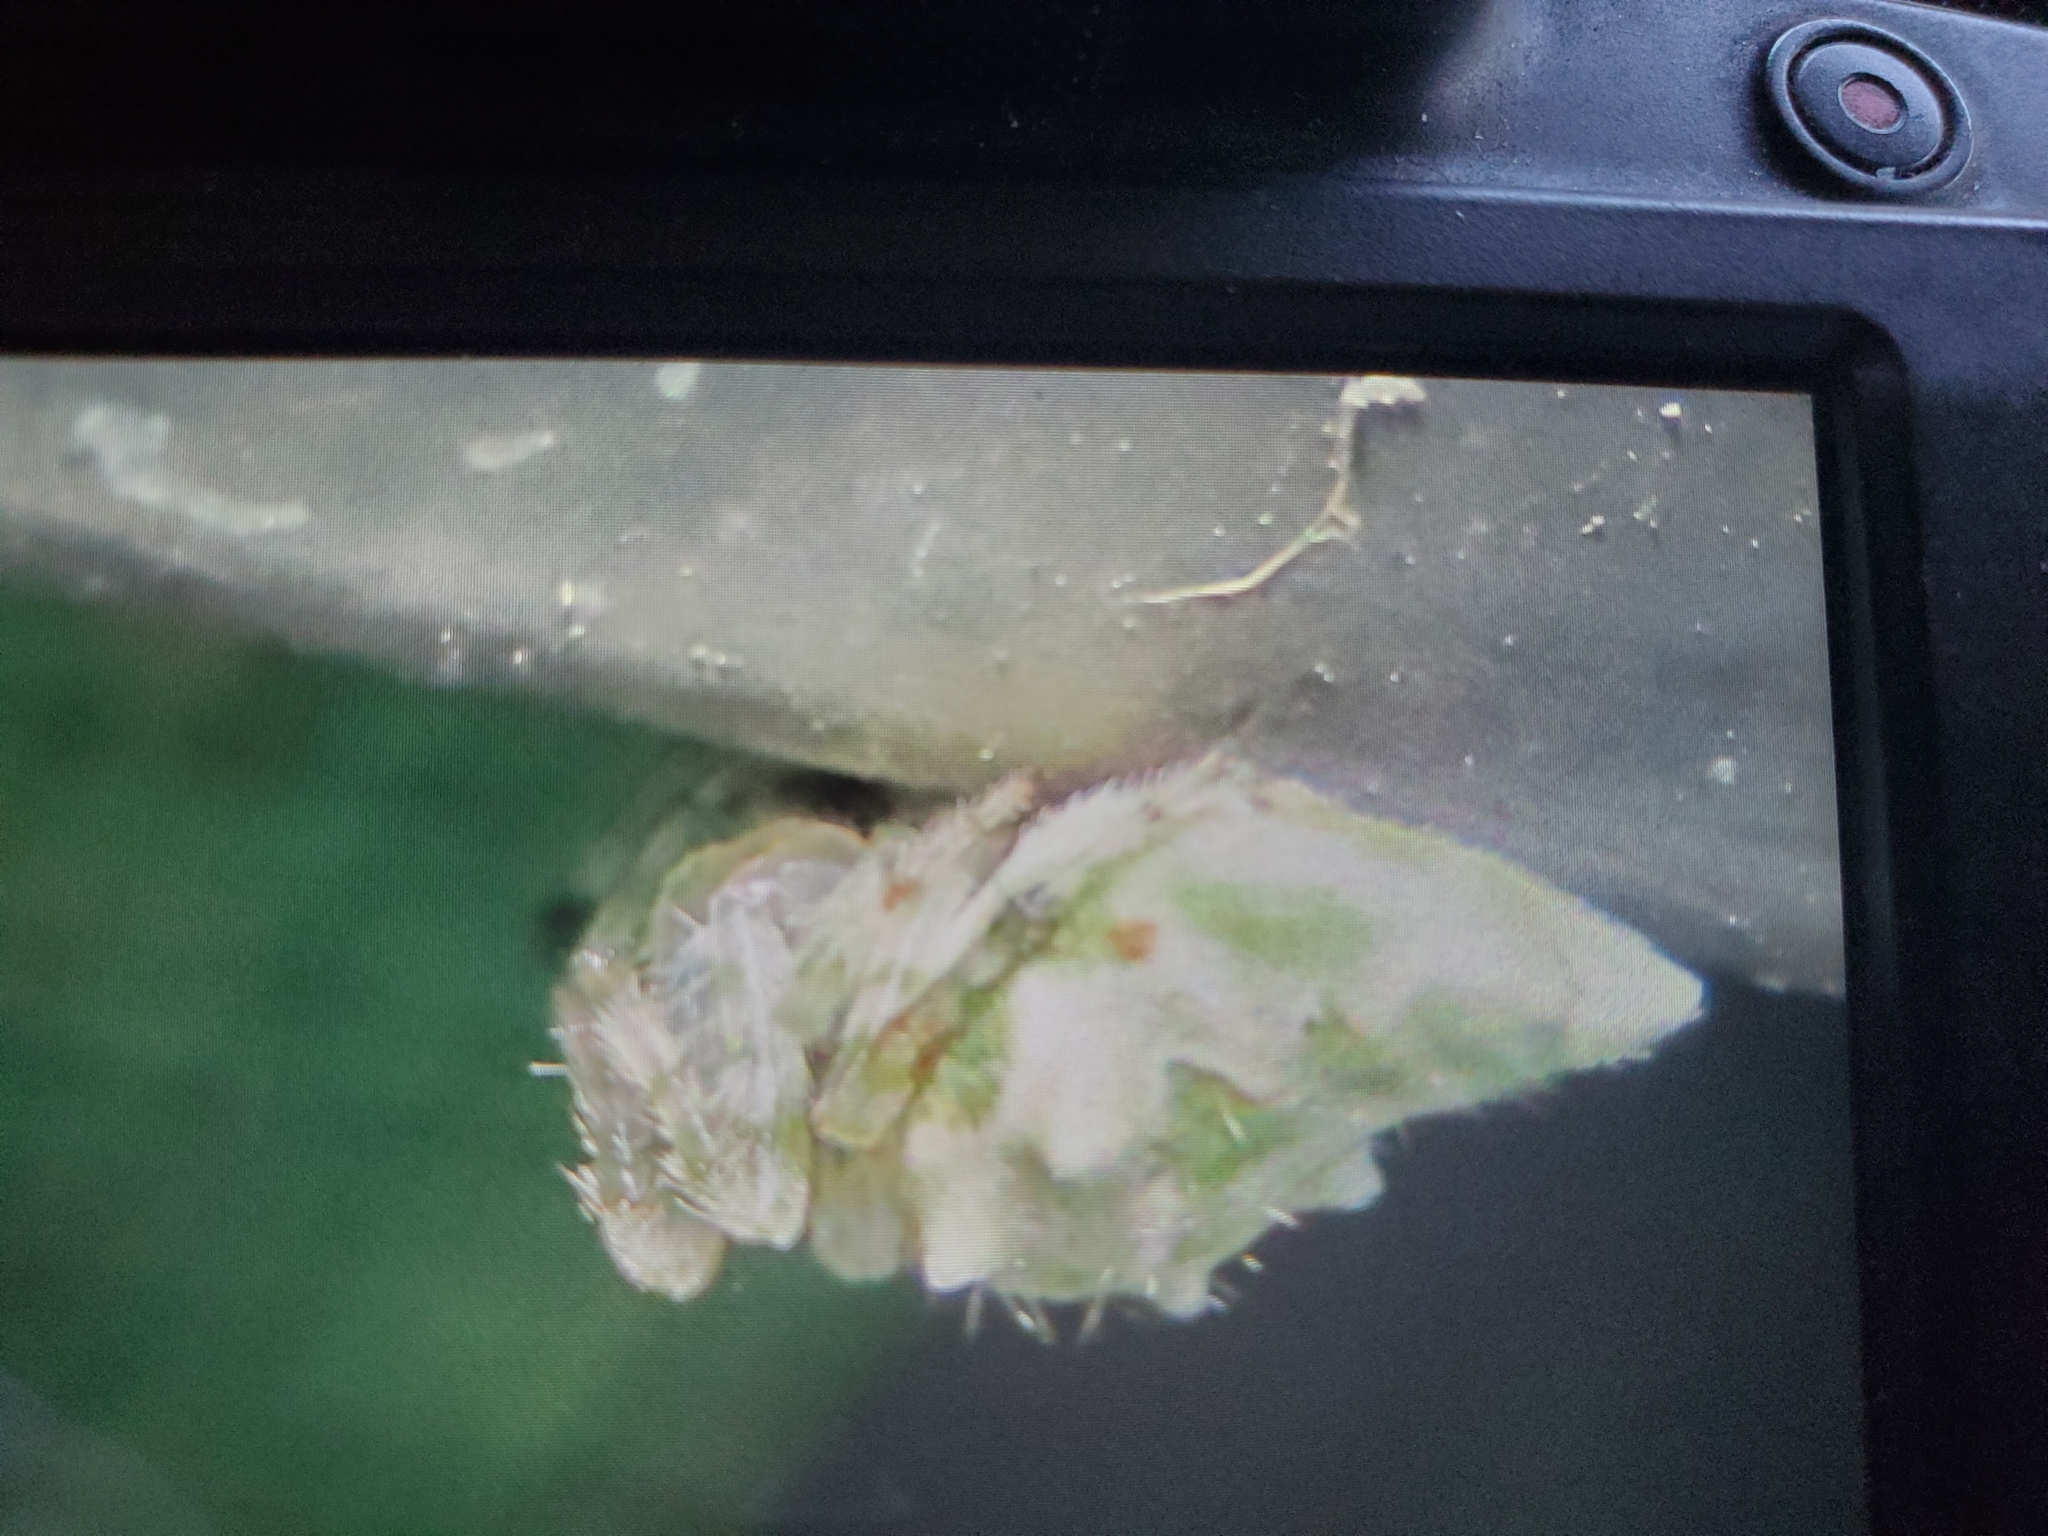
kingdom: Animalia
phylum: Arthropoda
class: Arachnida
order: Araneae
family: Araneidae
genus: Allocyclosa
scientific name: Allocyclosa bifurca
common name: Orb weavers
